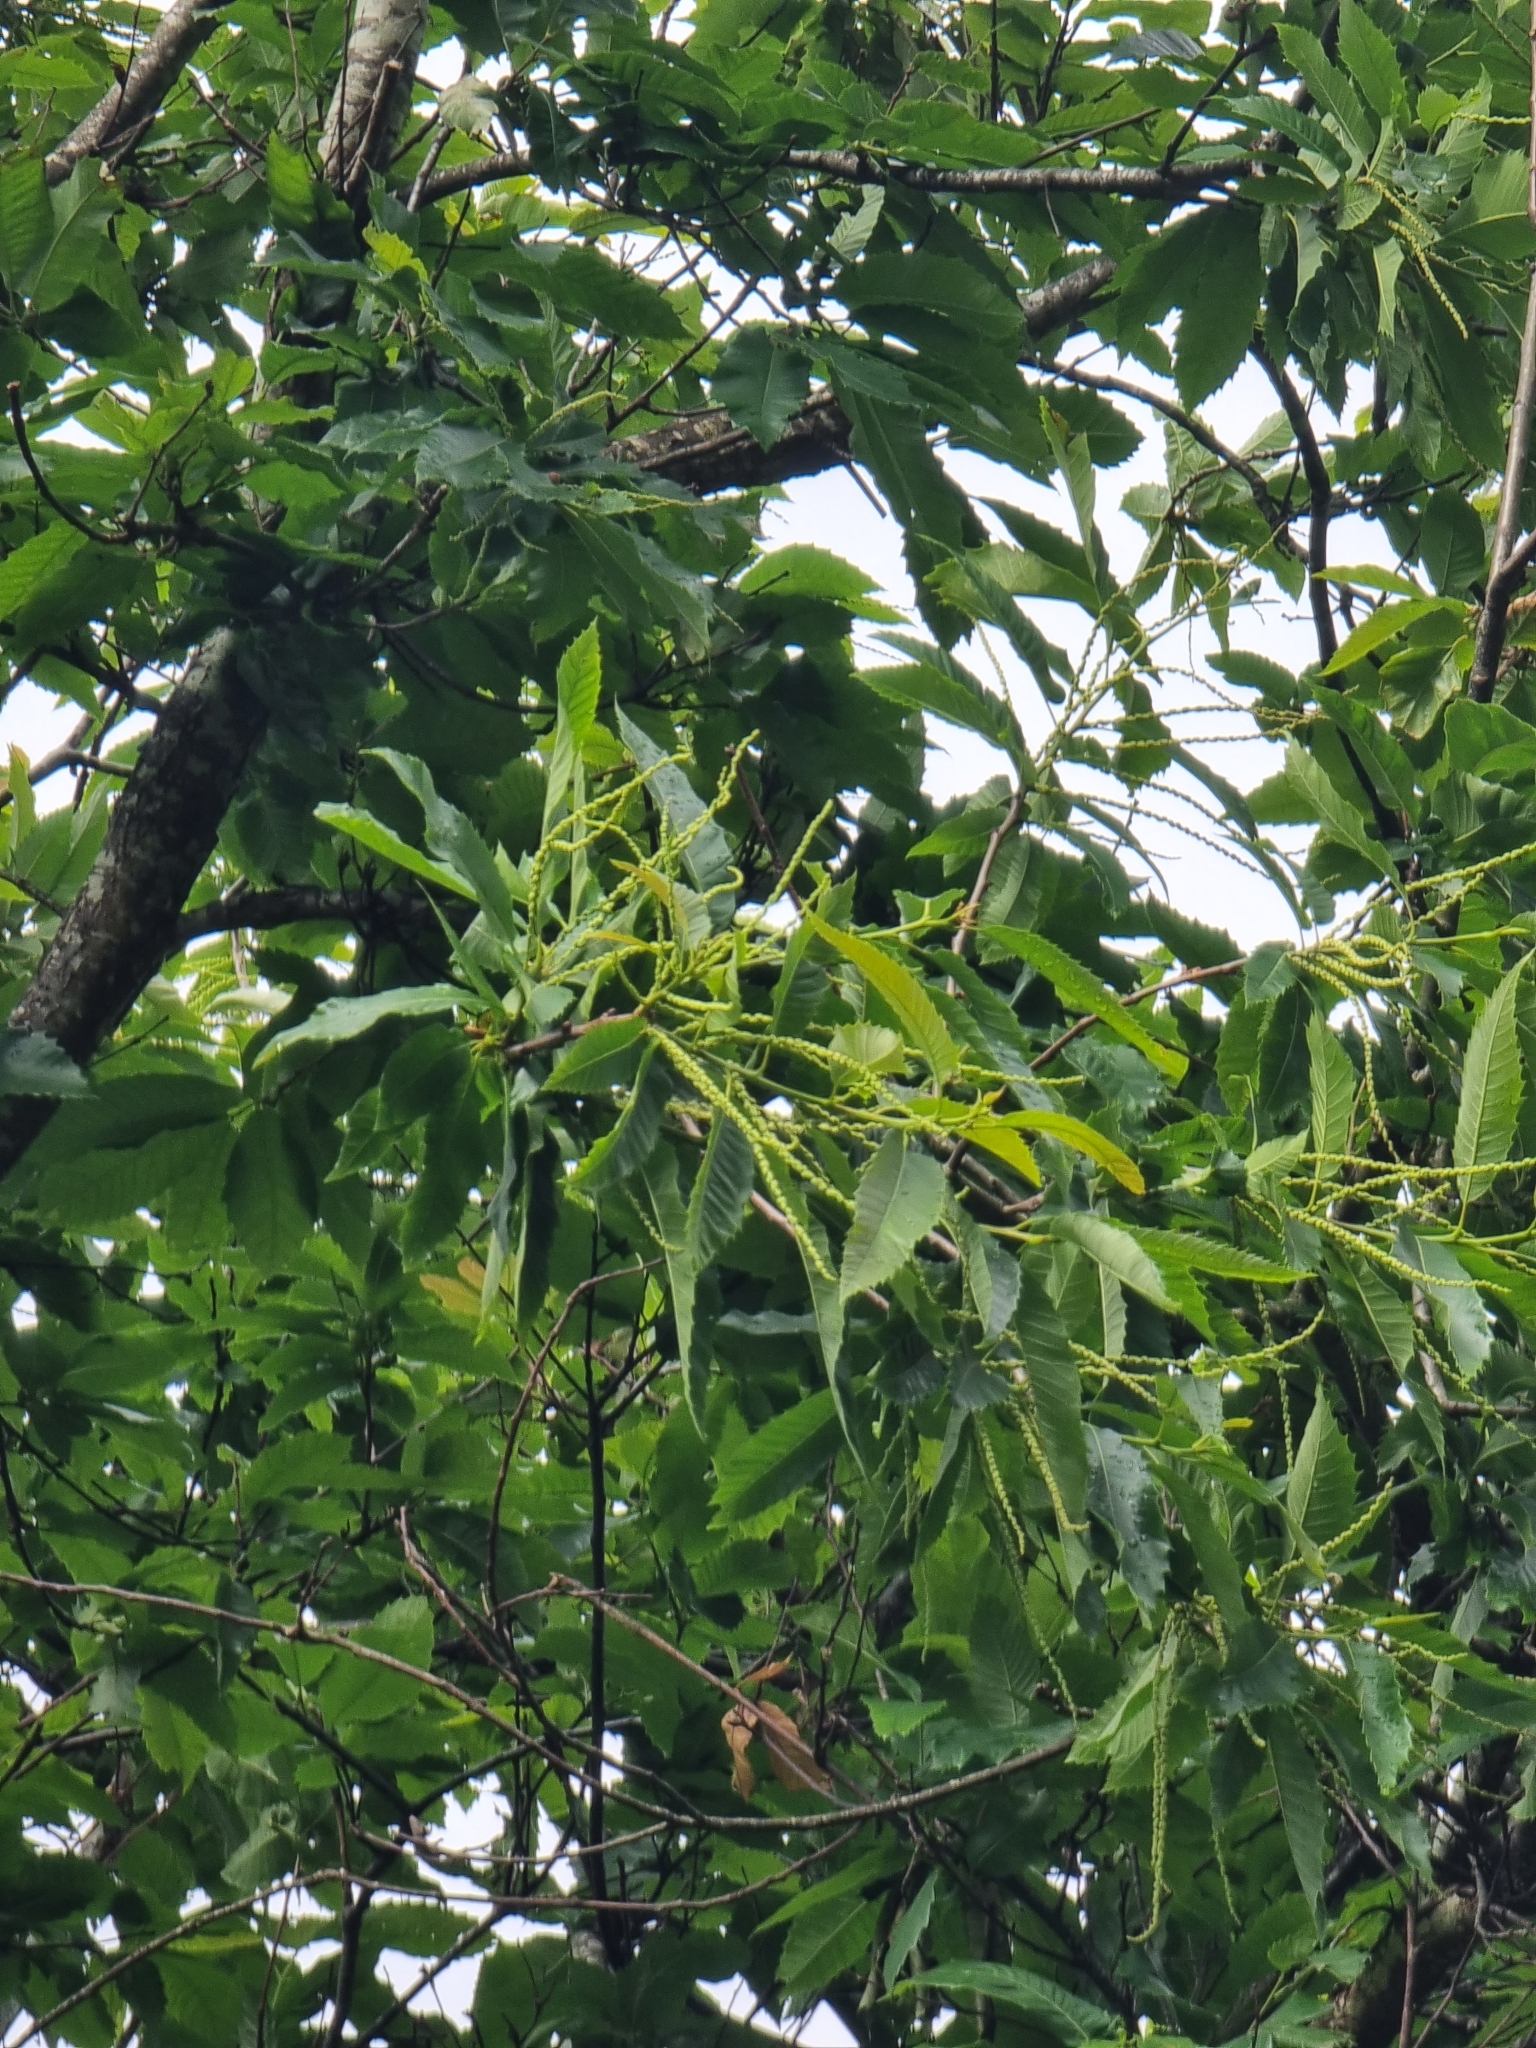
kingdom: Plantae
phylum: Tracheophyta
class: Magnoliopsida
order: Fagales
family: Fagaceae
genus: Castanea
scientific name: Castanea sativa
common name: Sweet chestnut
